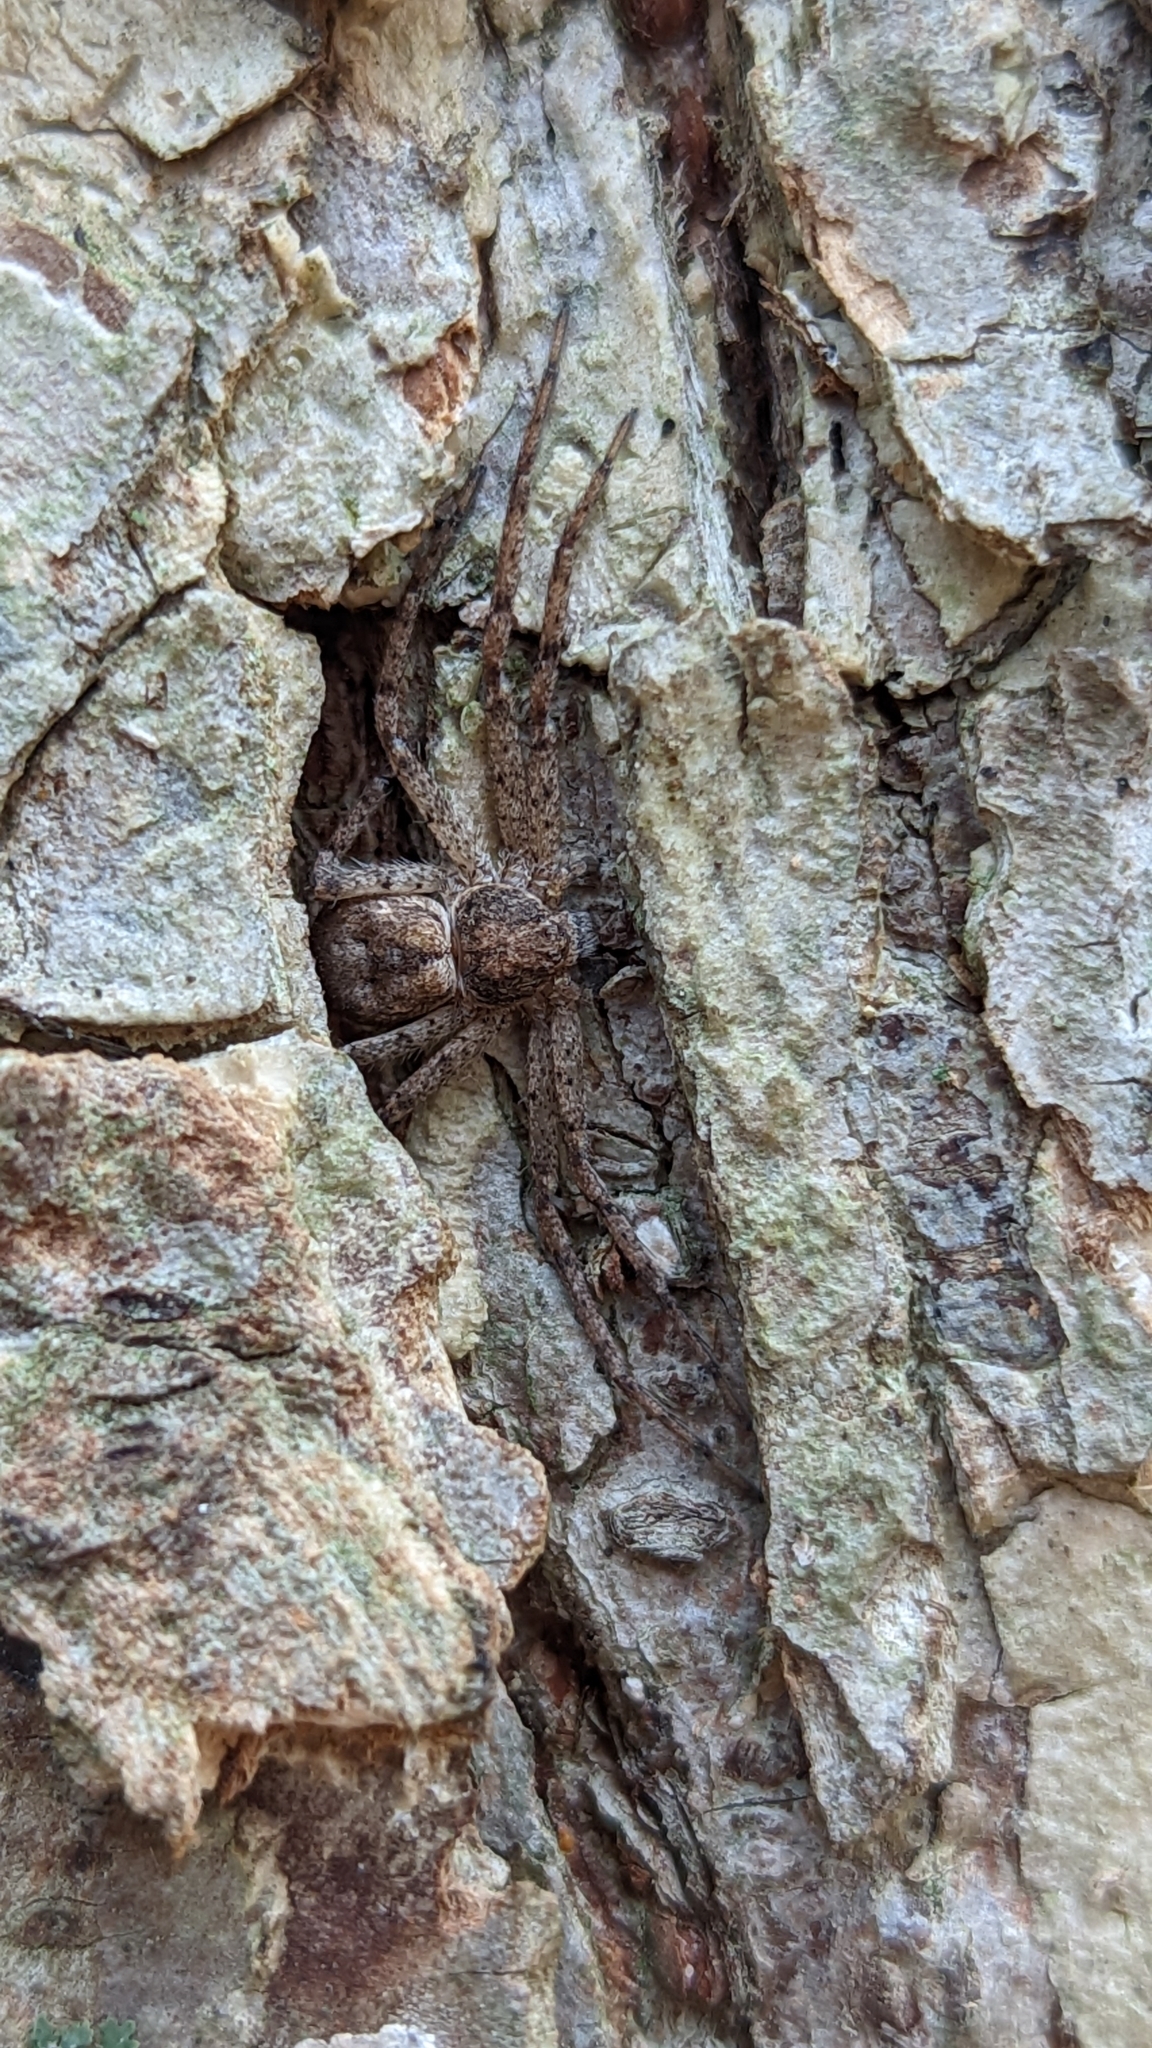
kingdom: Animalia
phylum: Arthropoda
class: Arachnida
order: Araneae
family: Philodromidae
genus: Philodromus
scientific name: Philodromus
